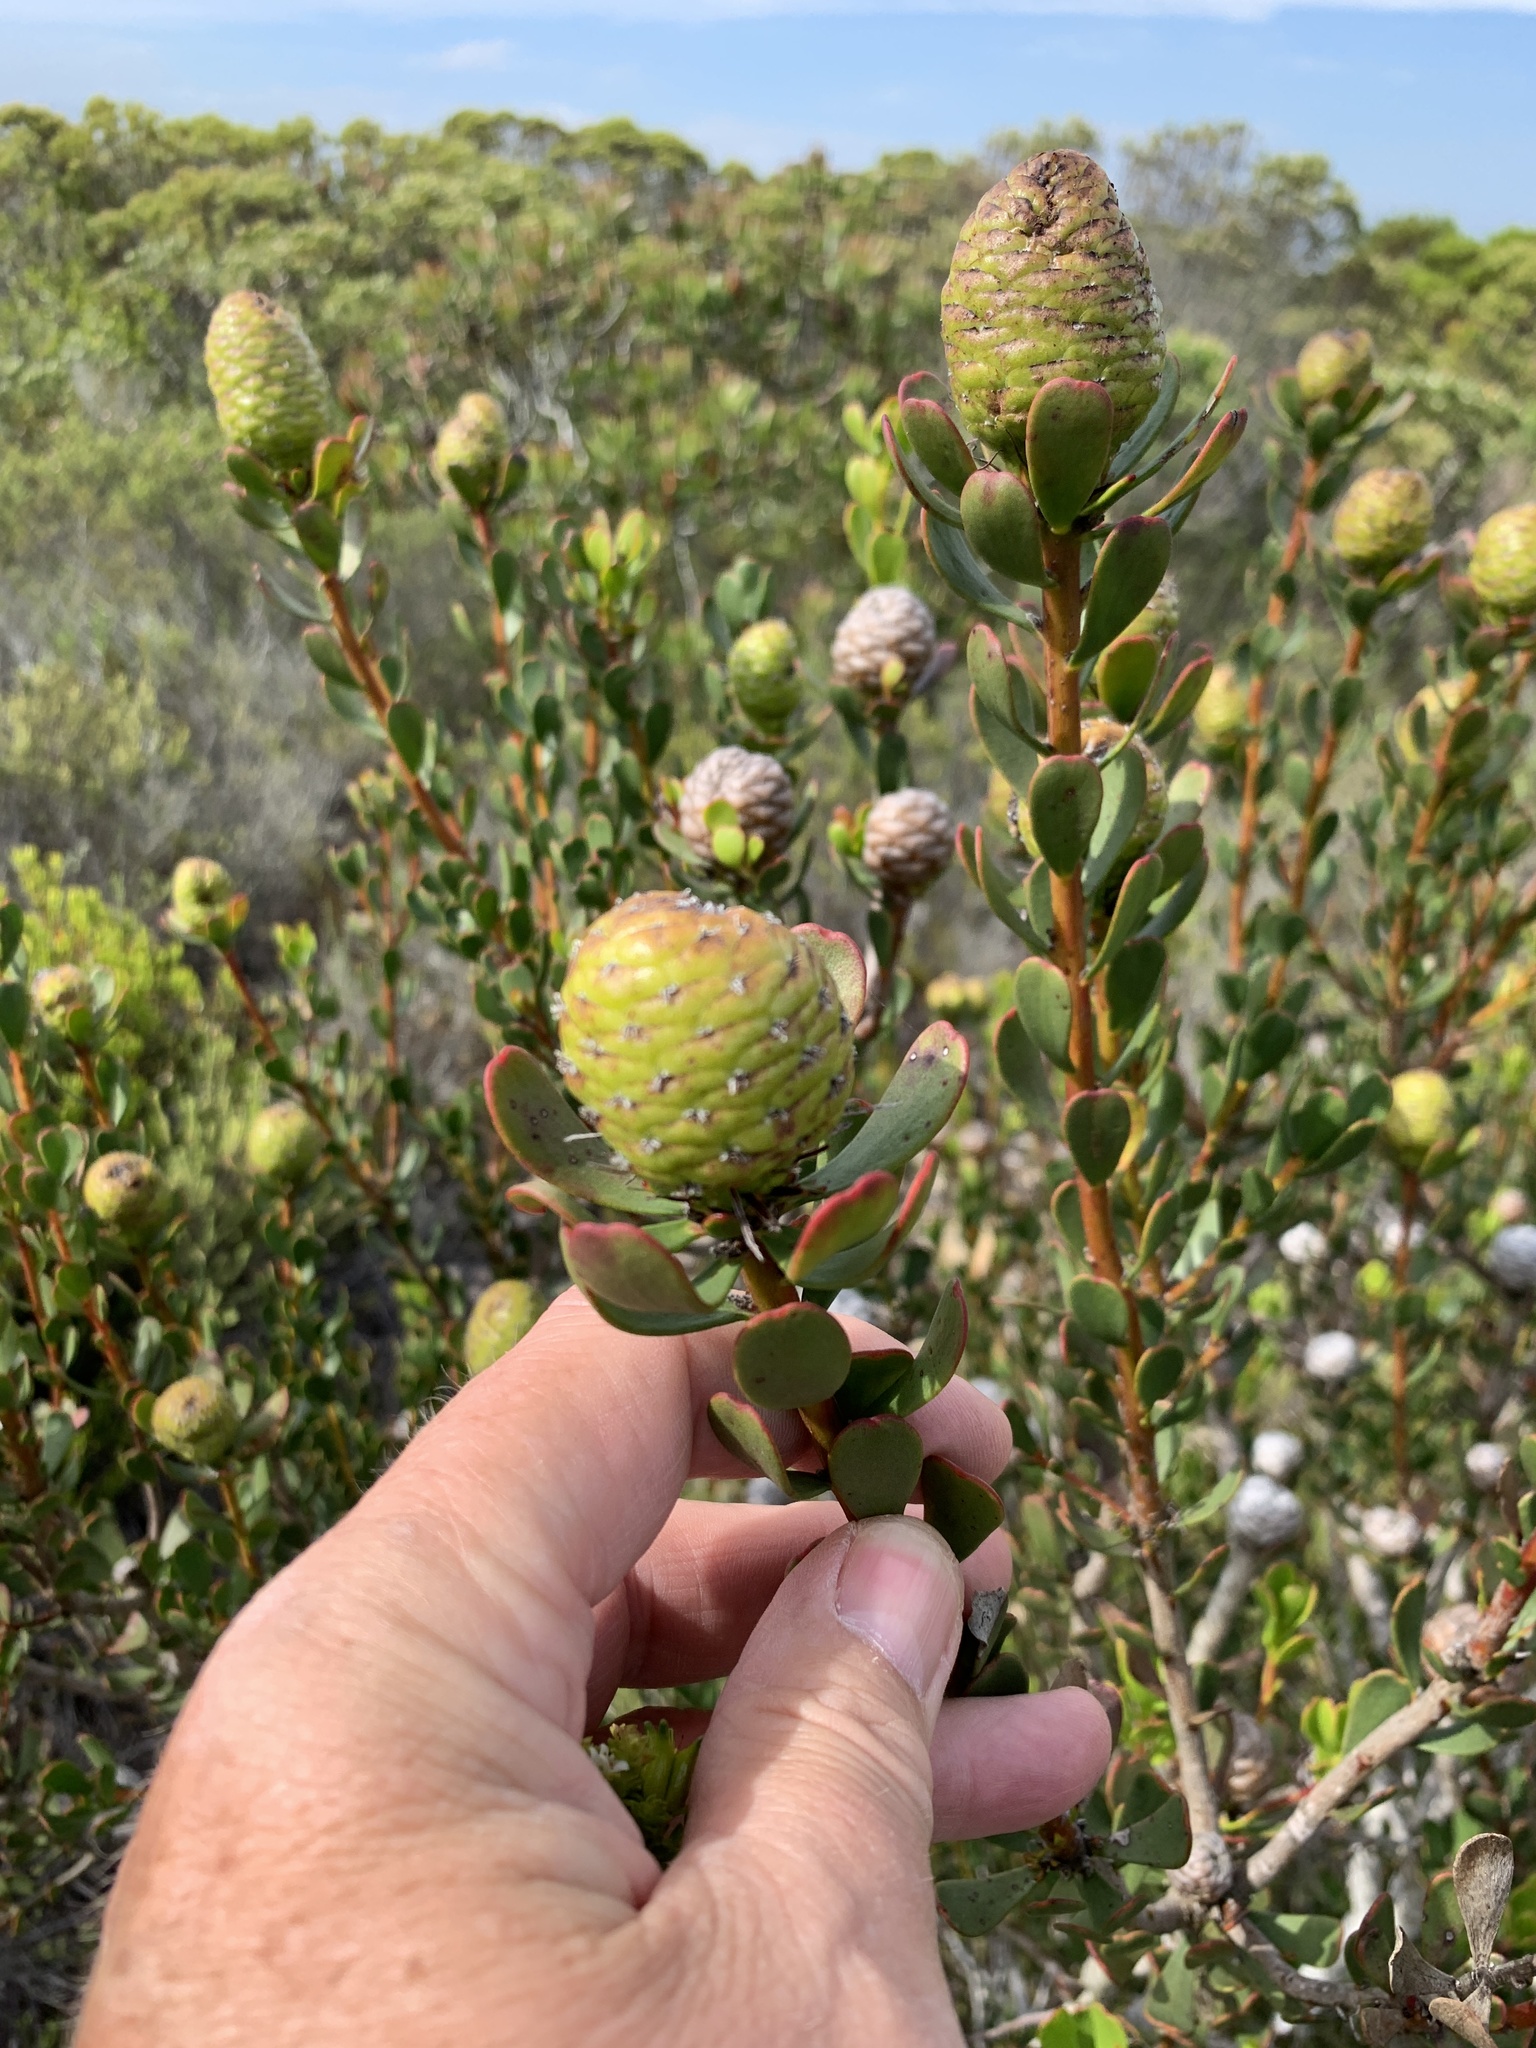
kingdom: Plantae
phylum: Tracheophyta
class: Magnoliopsida
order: Proteales
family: Proteaceae
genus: Leucadendron
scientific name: Leucadendron muirii
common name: Silver-ball conebush
